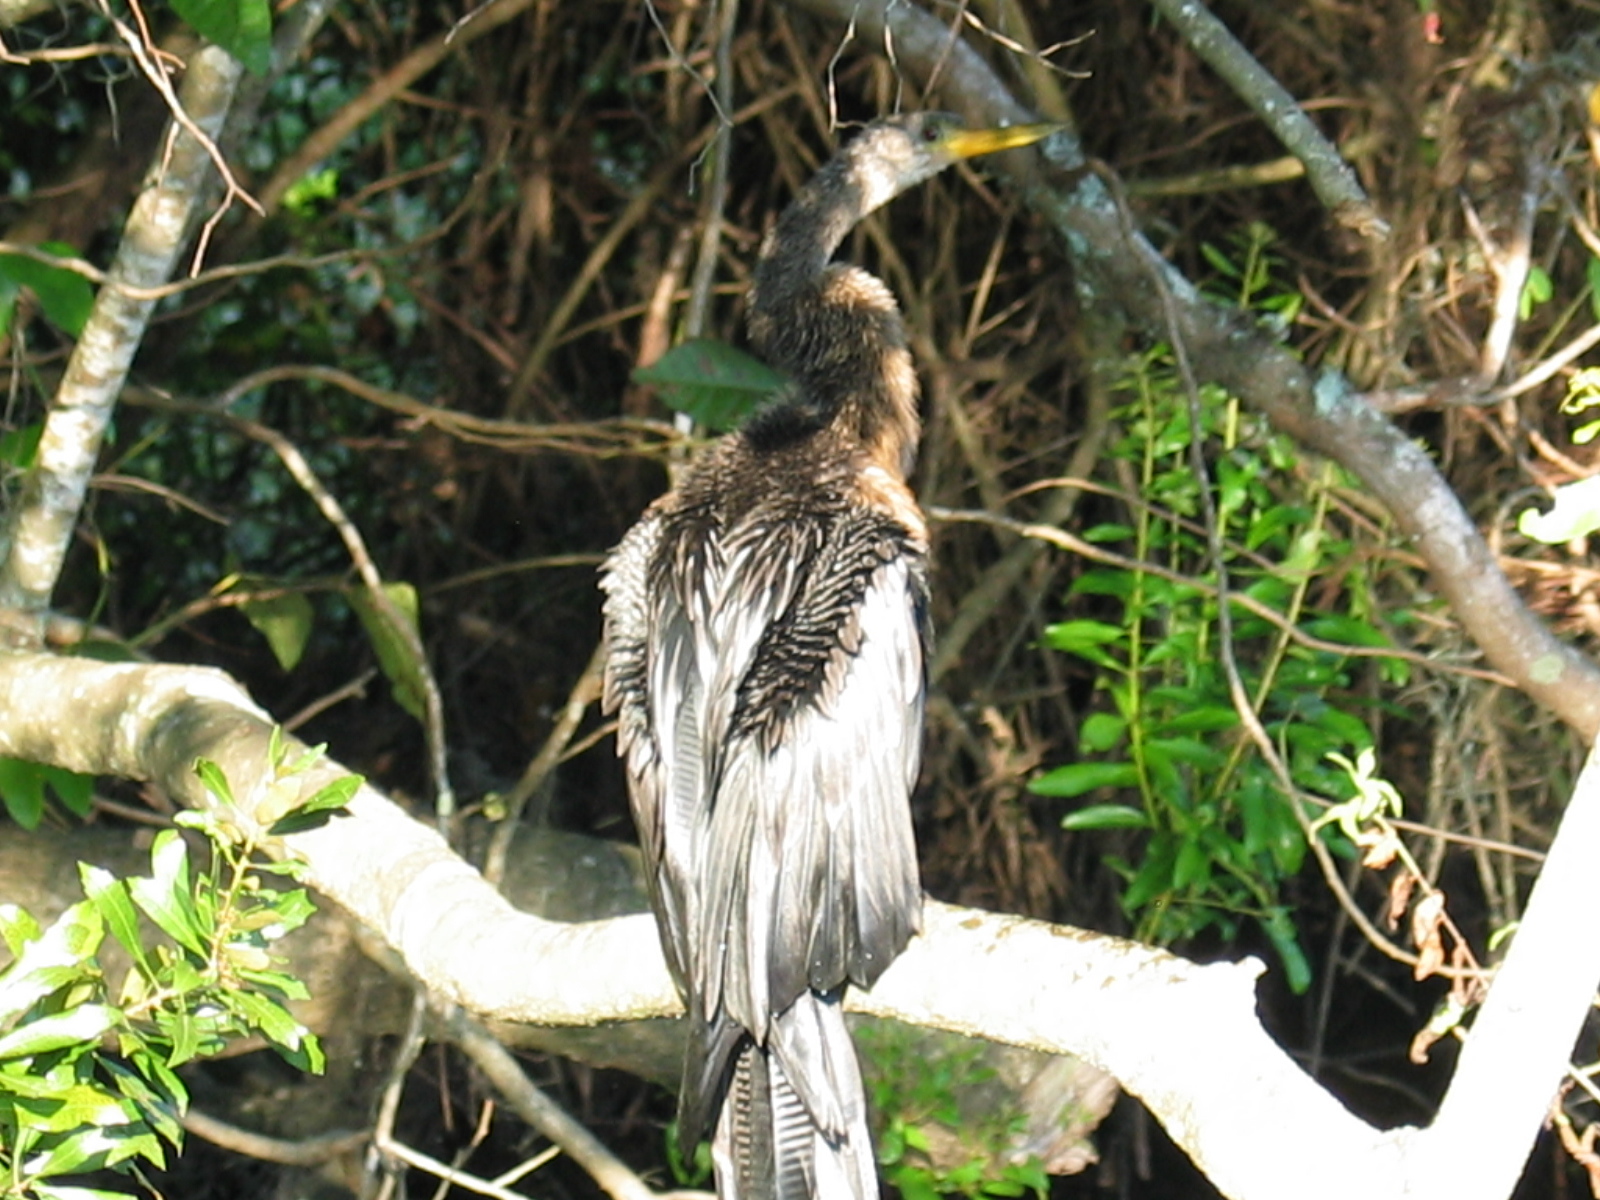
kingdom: Animalia
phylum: Chordata
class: Aves
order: Suliformes
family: Anhingidae
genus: Anhinga
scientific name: Anhinga anhinga
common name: Anhinga
